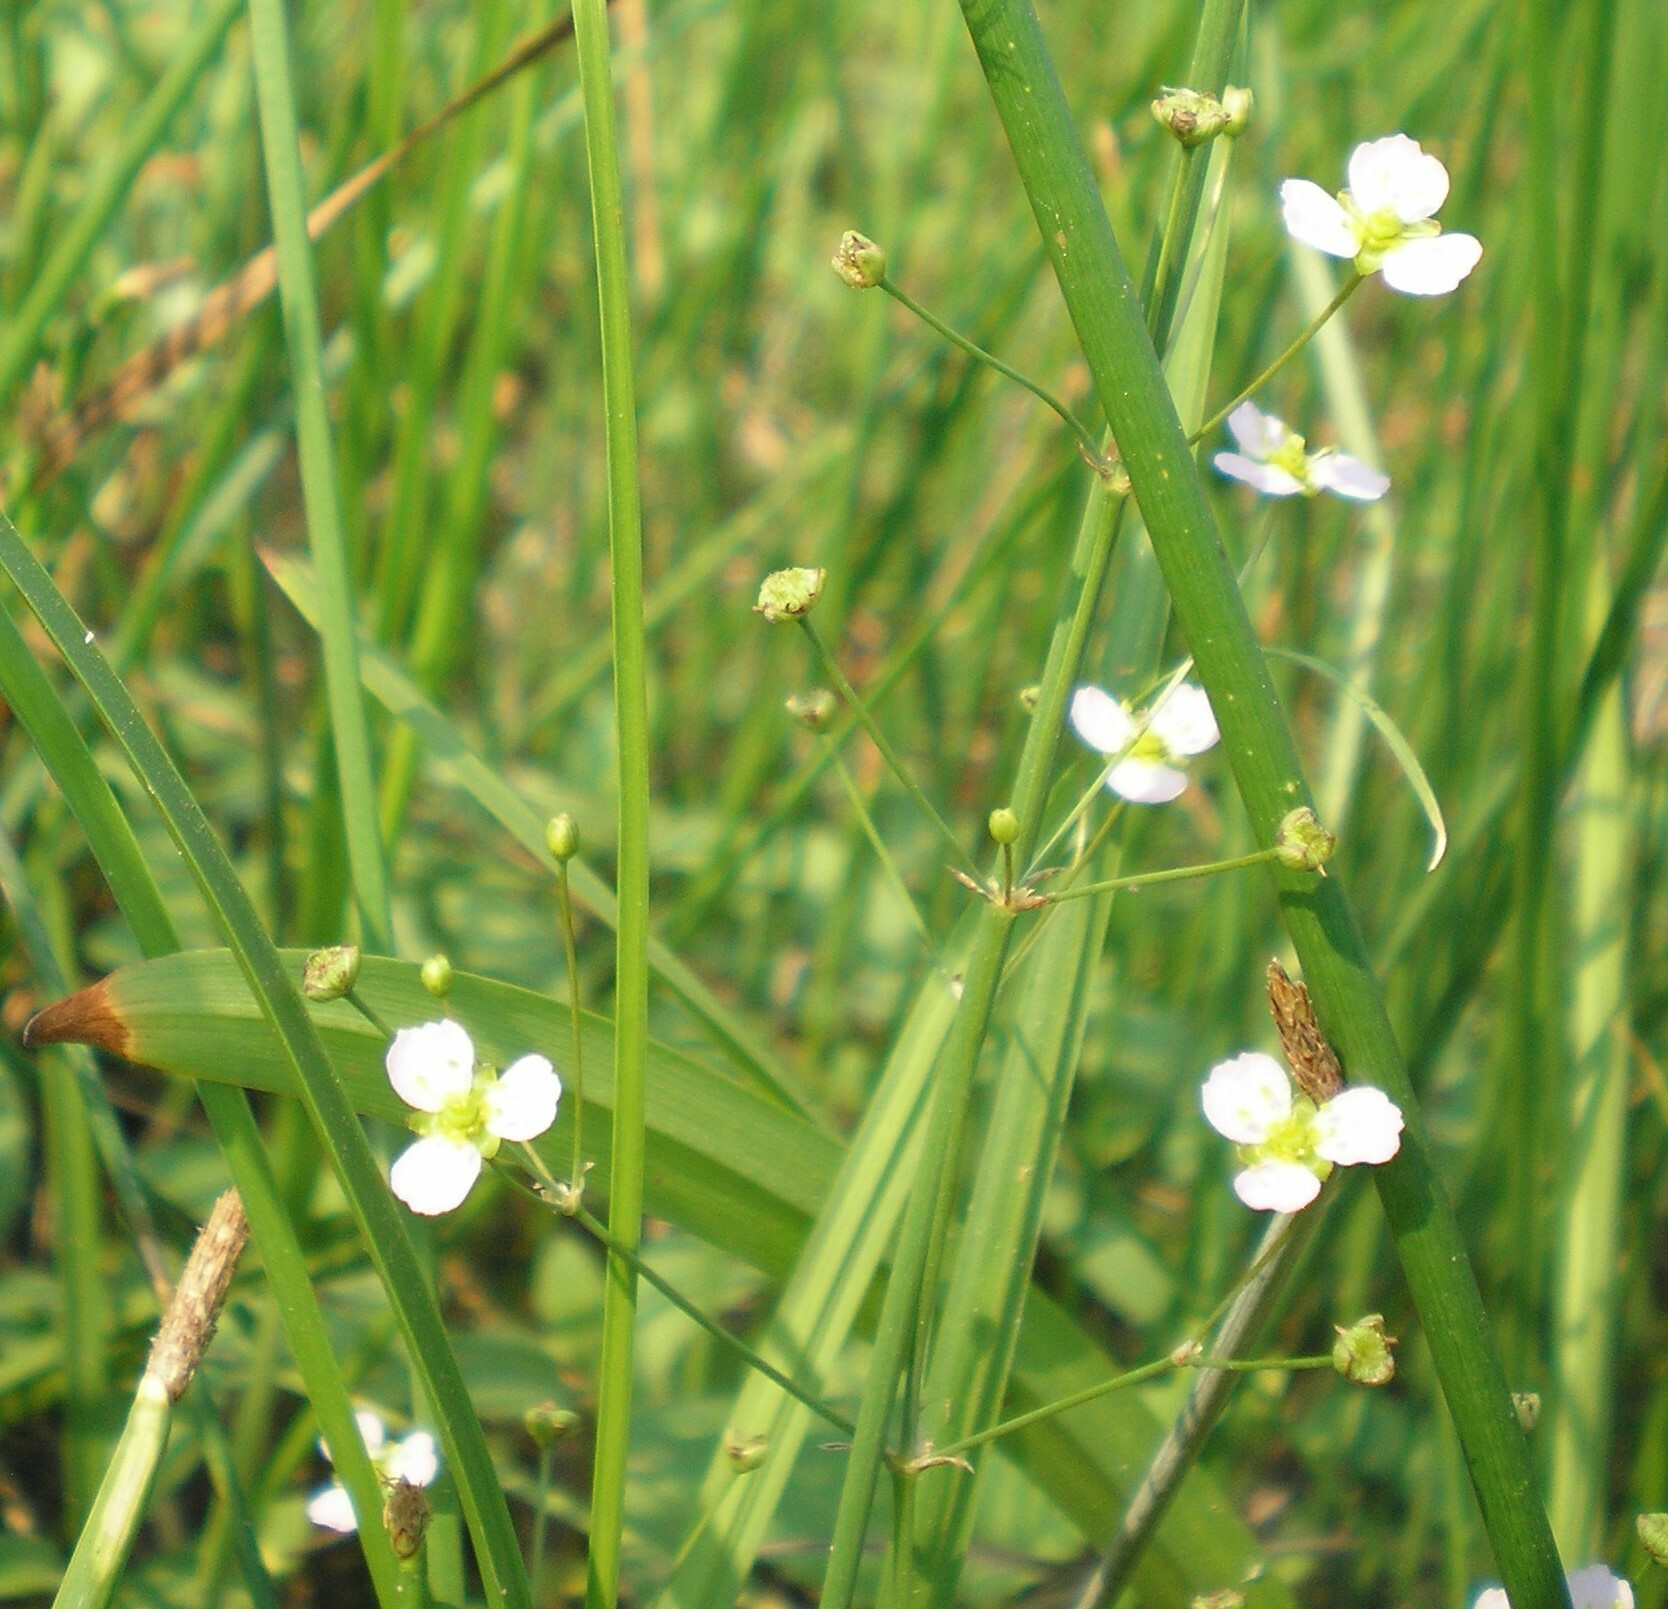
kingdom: Plantae
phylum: Tracheophyta
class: Liliopsida
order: Alismatales
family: Alismataceae
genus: Alisma
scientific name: Alisma plantago-aquatica
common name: Water-plantain
